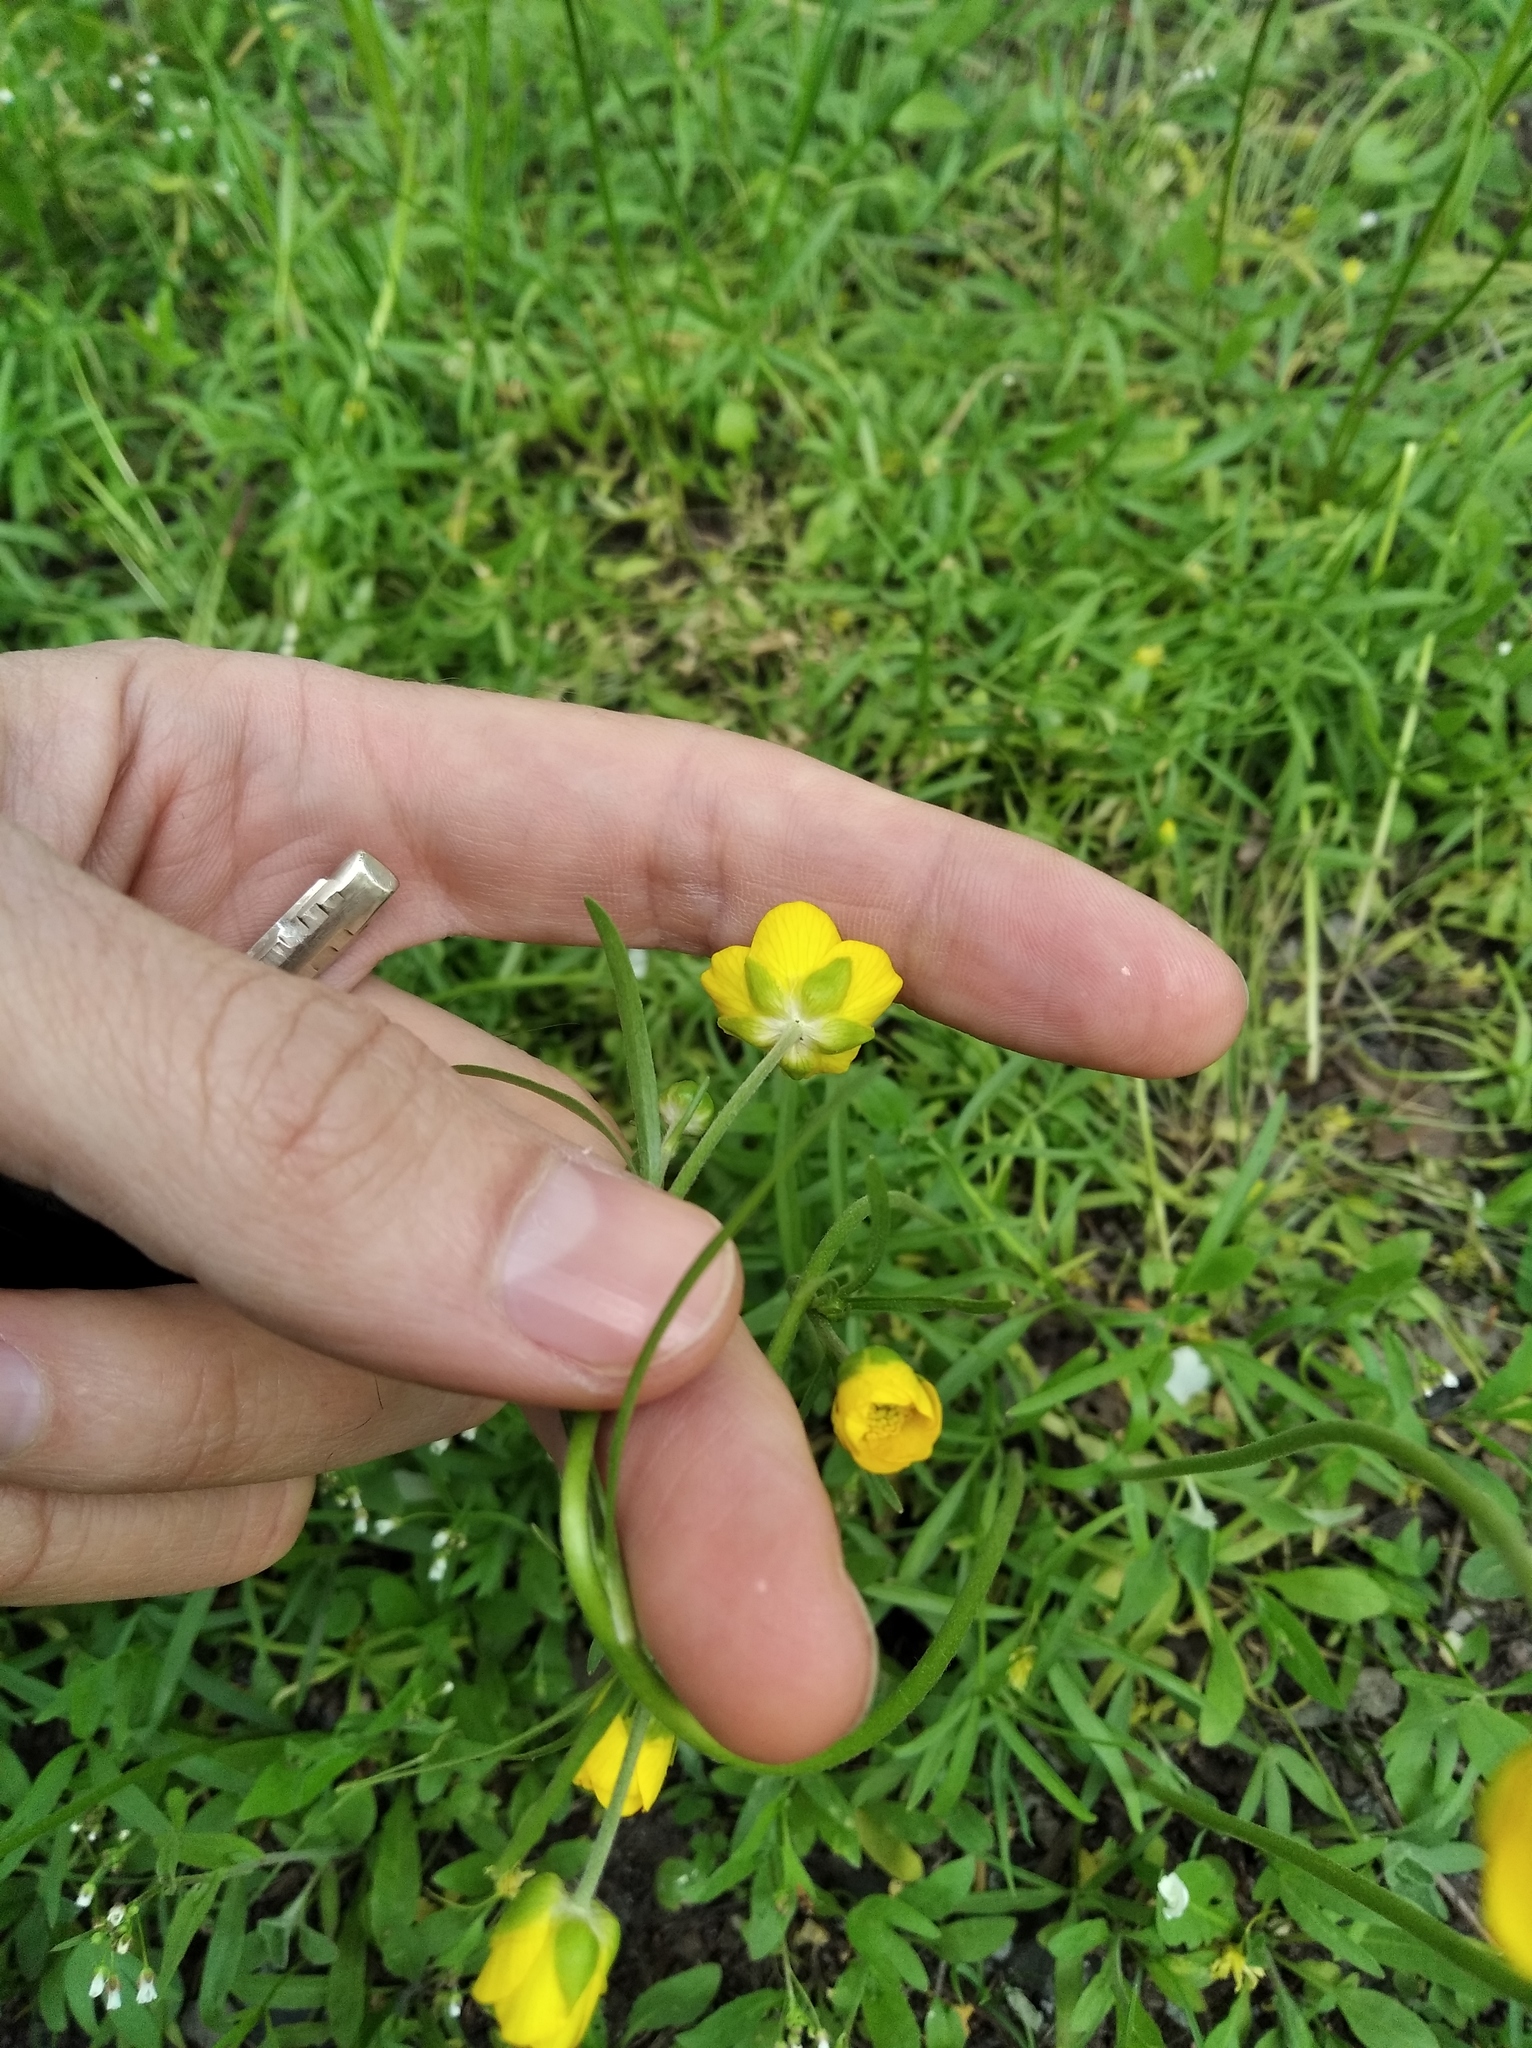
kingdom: Plantae
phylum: Tracheophyta
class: Magnoliopsida
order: Ranunculales
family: Ranunculaceae
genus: Ranunculus
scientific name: Ranunculus pedatus
